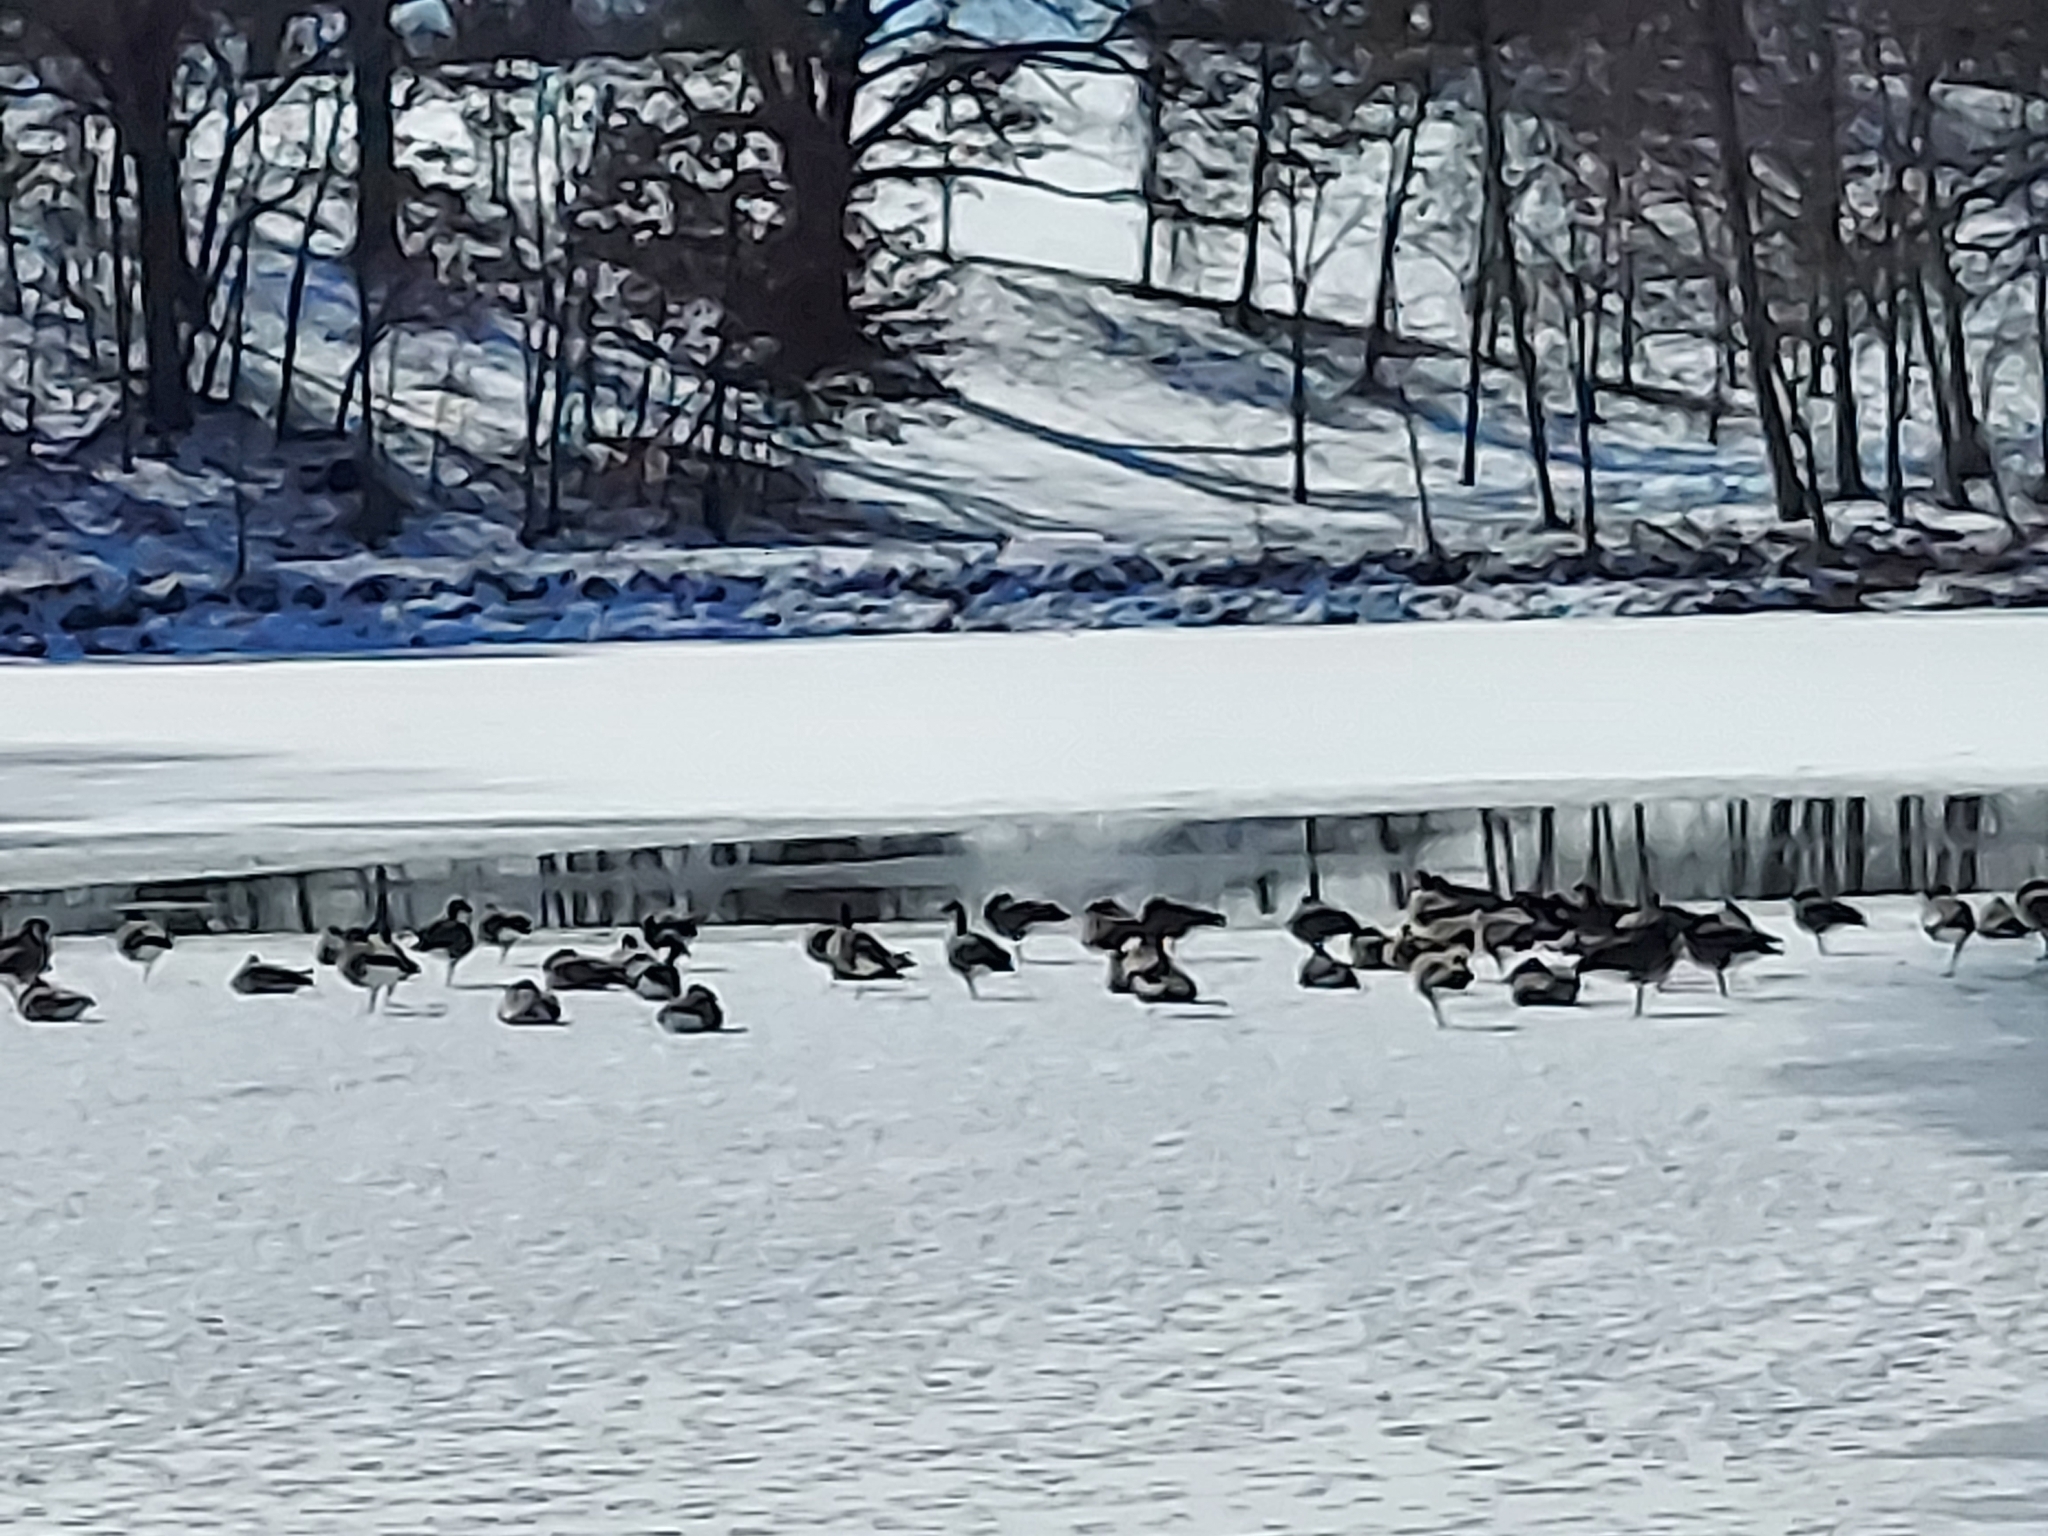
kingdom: Animalia
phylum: Chordata
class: Aves
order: Anseriformes
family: Anatidae
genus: Branta
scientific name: Branta canadensis
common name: Canada goose
